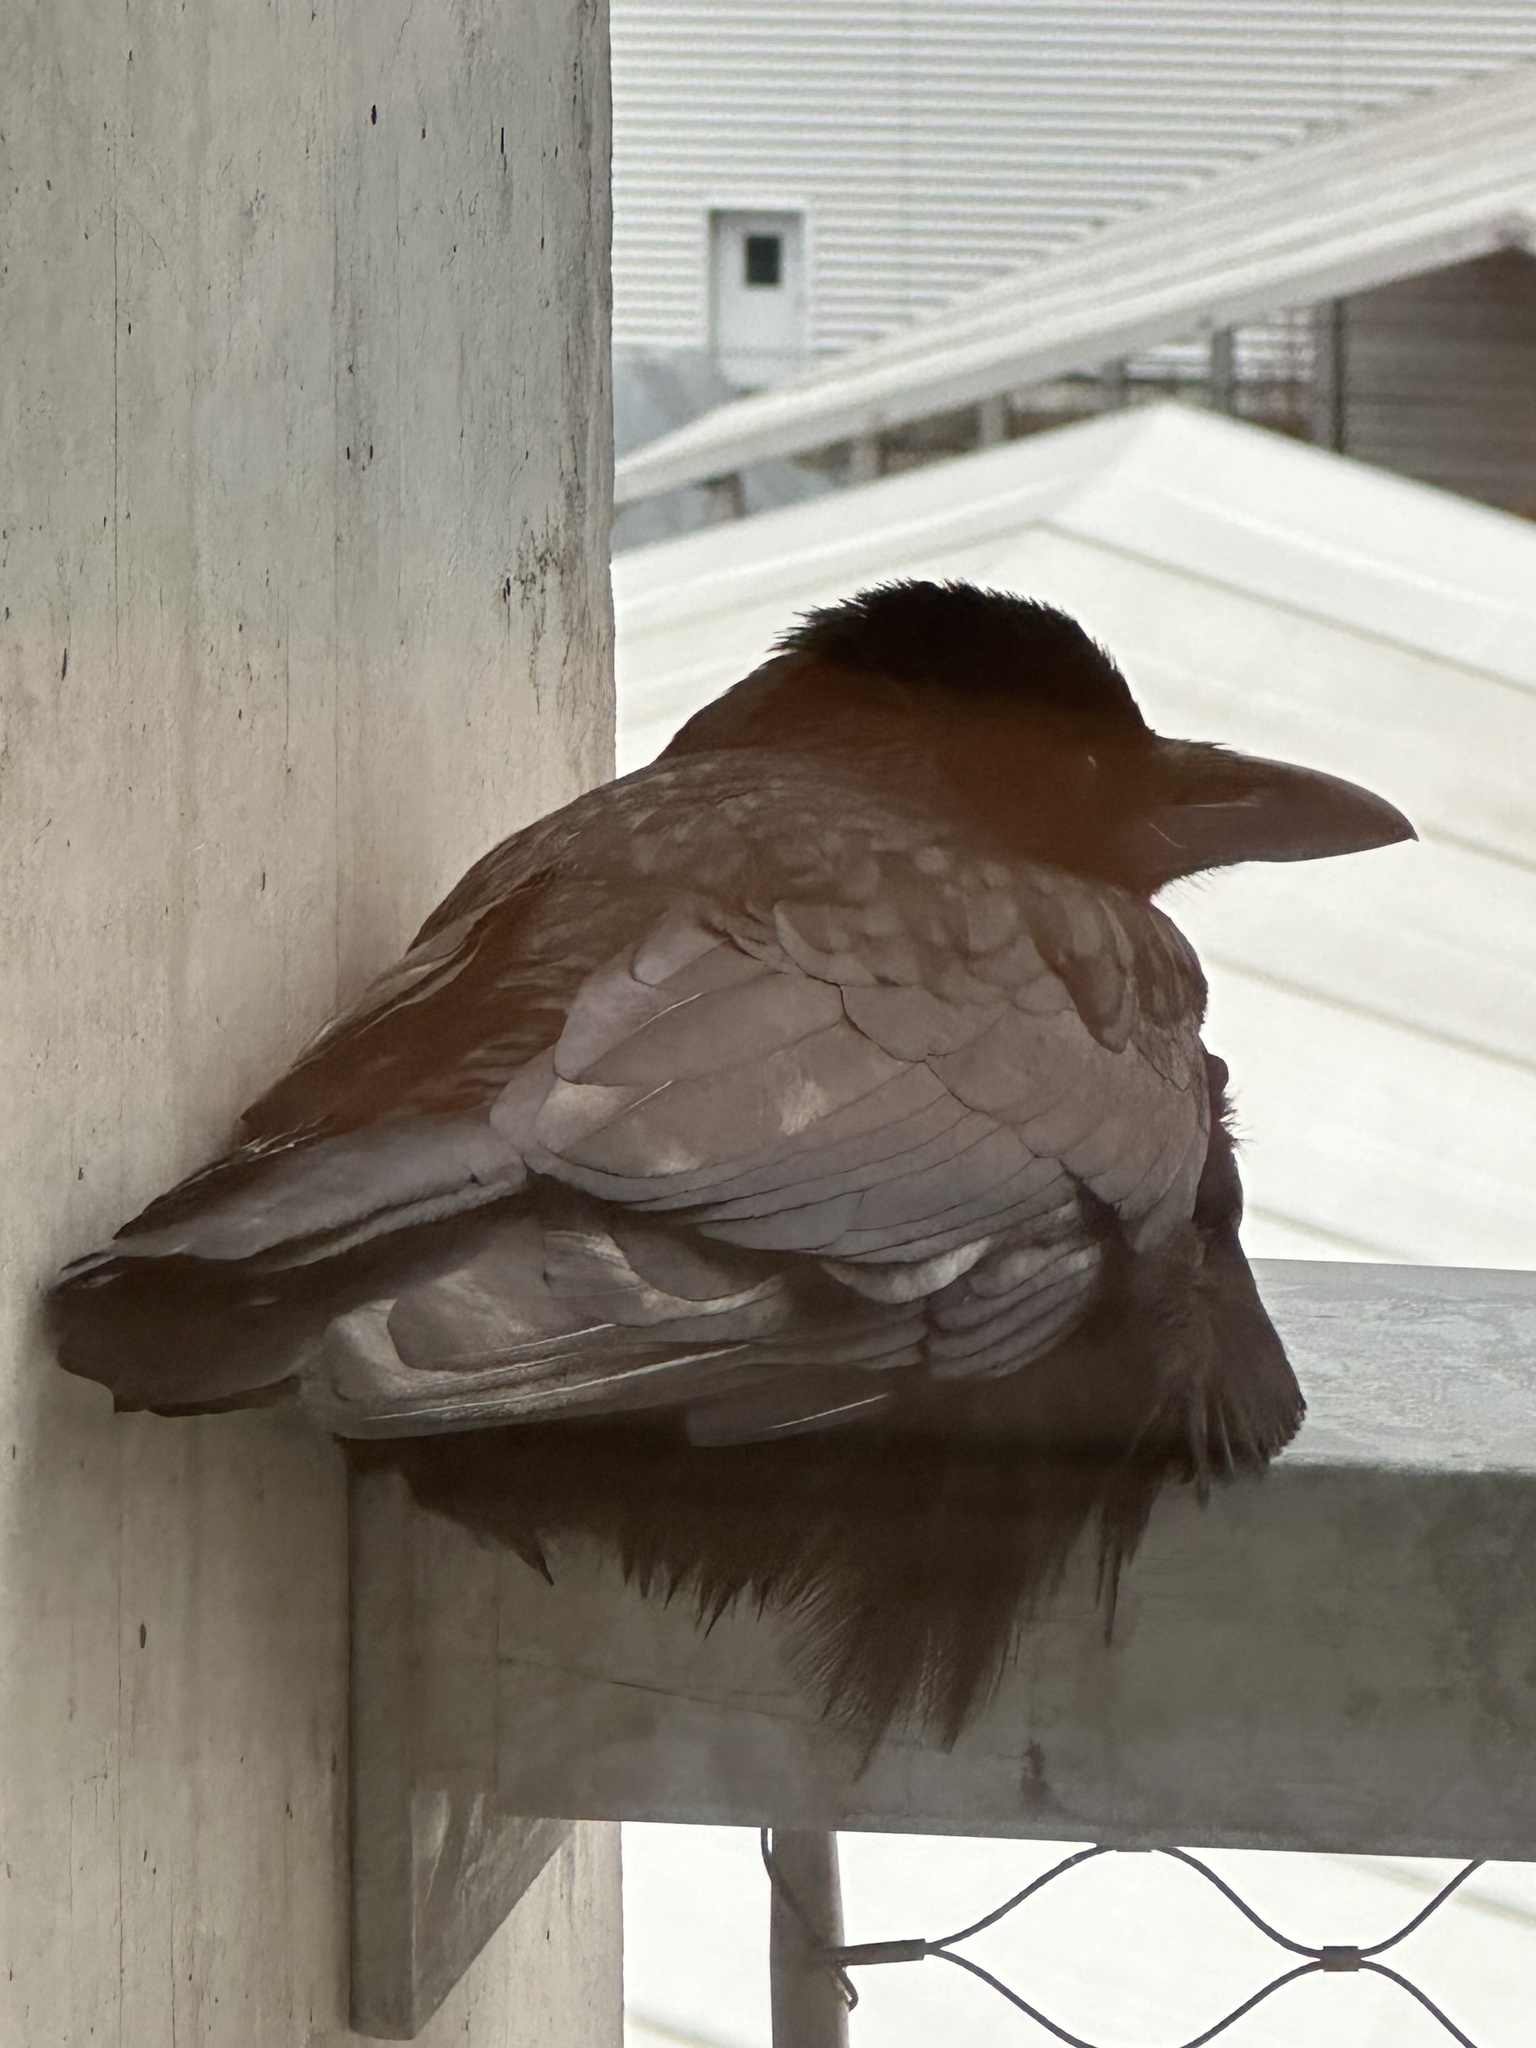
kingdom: Animalia
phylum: Chordata
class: Aves
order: Passeriformes
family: Corvidae
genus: Corvus
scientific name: Corvus corone
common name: Carrion crow
